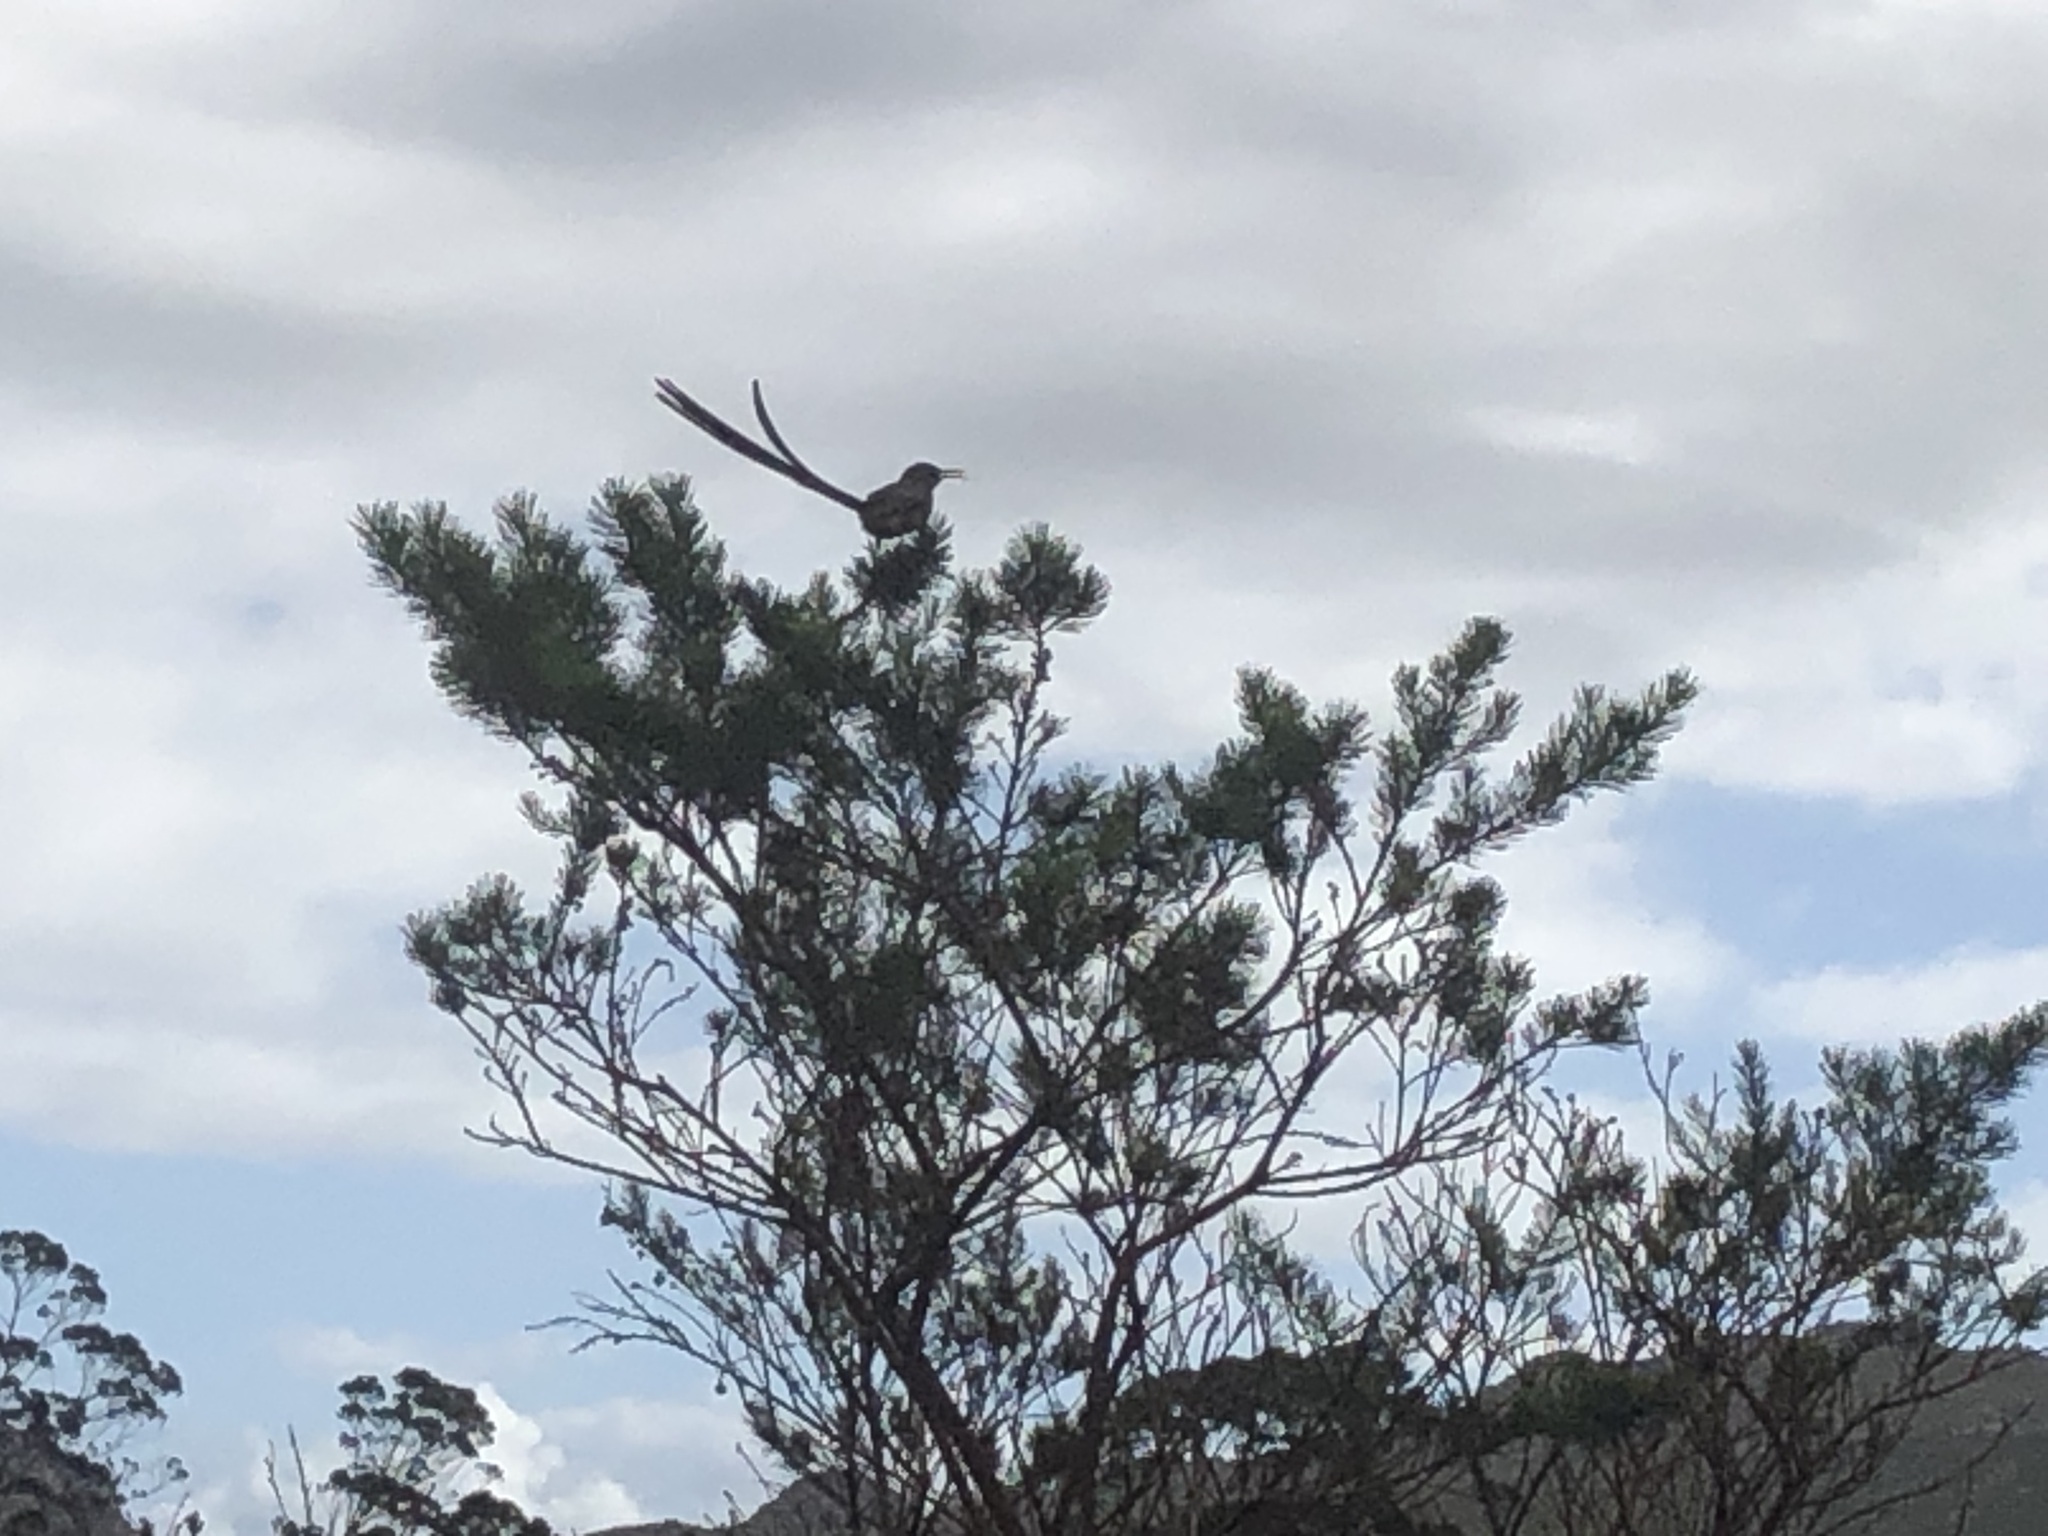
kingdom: Animalia
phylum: Chordata
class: Aves
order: Passeriformes
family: Promeropidae
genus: Promerops
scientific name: Promerops cafer
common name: Cape sugarbird
